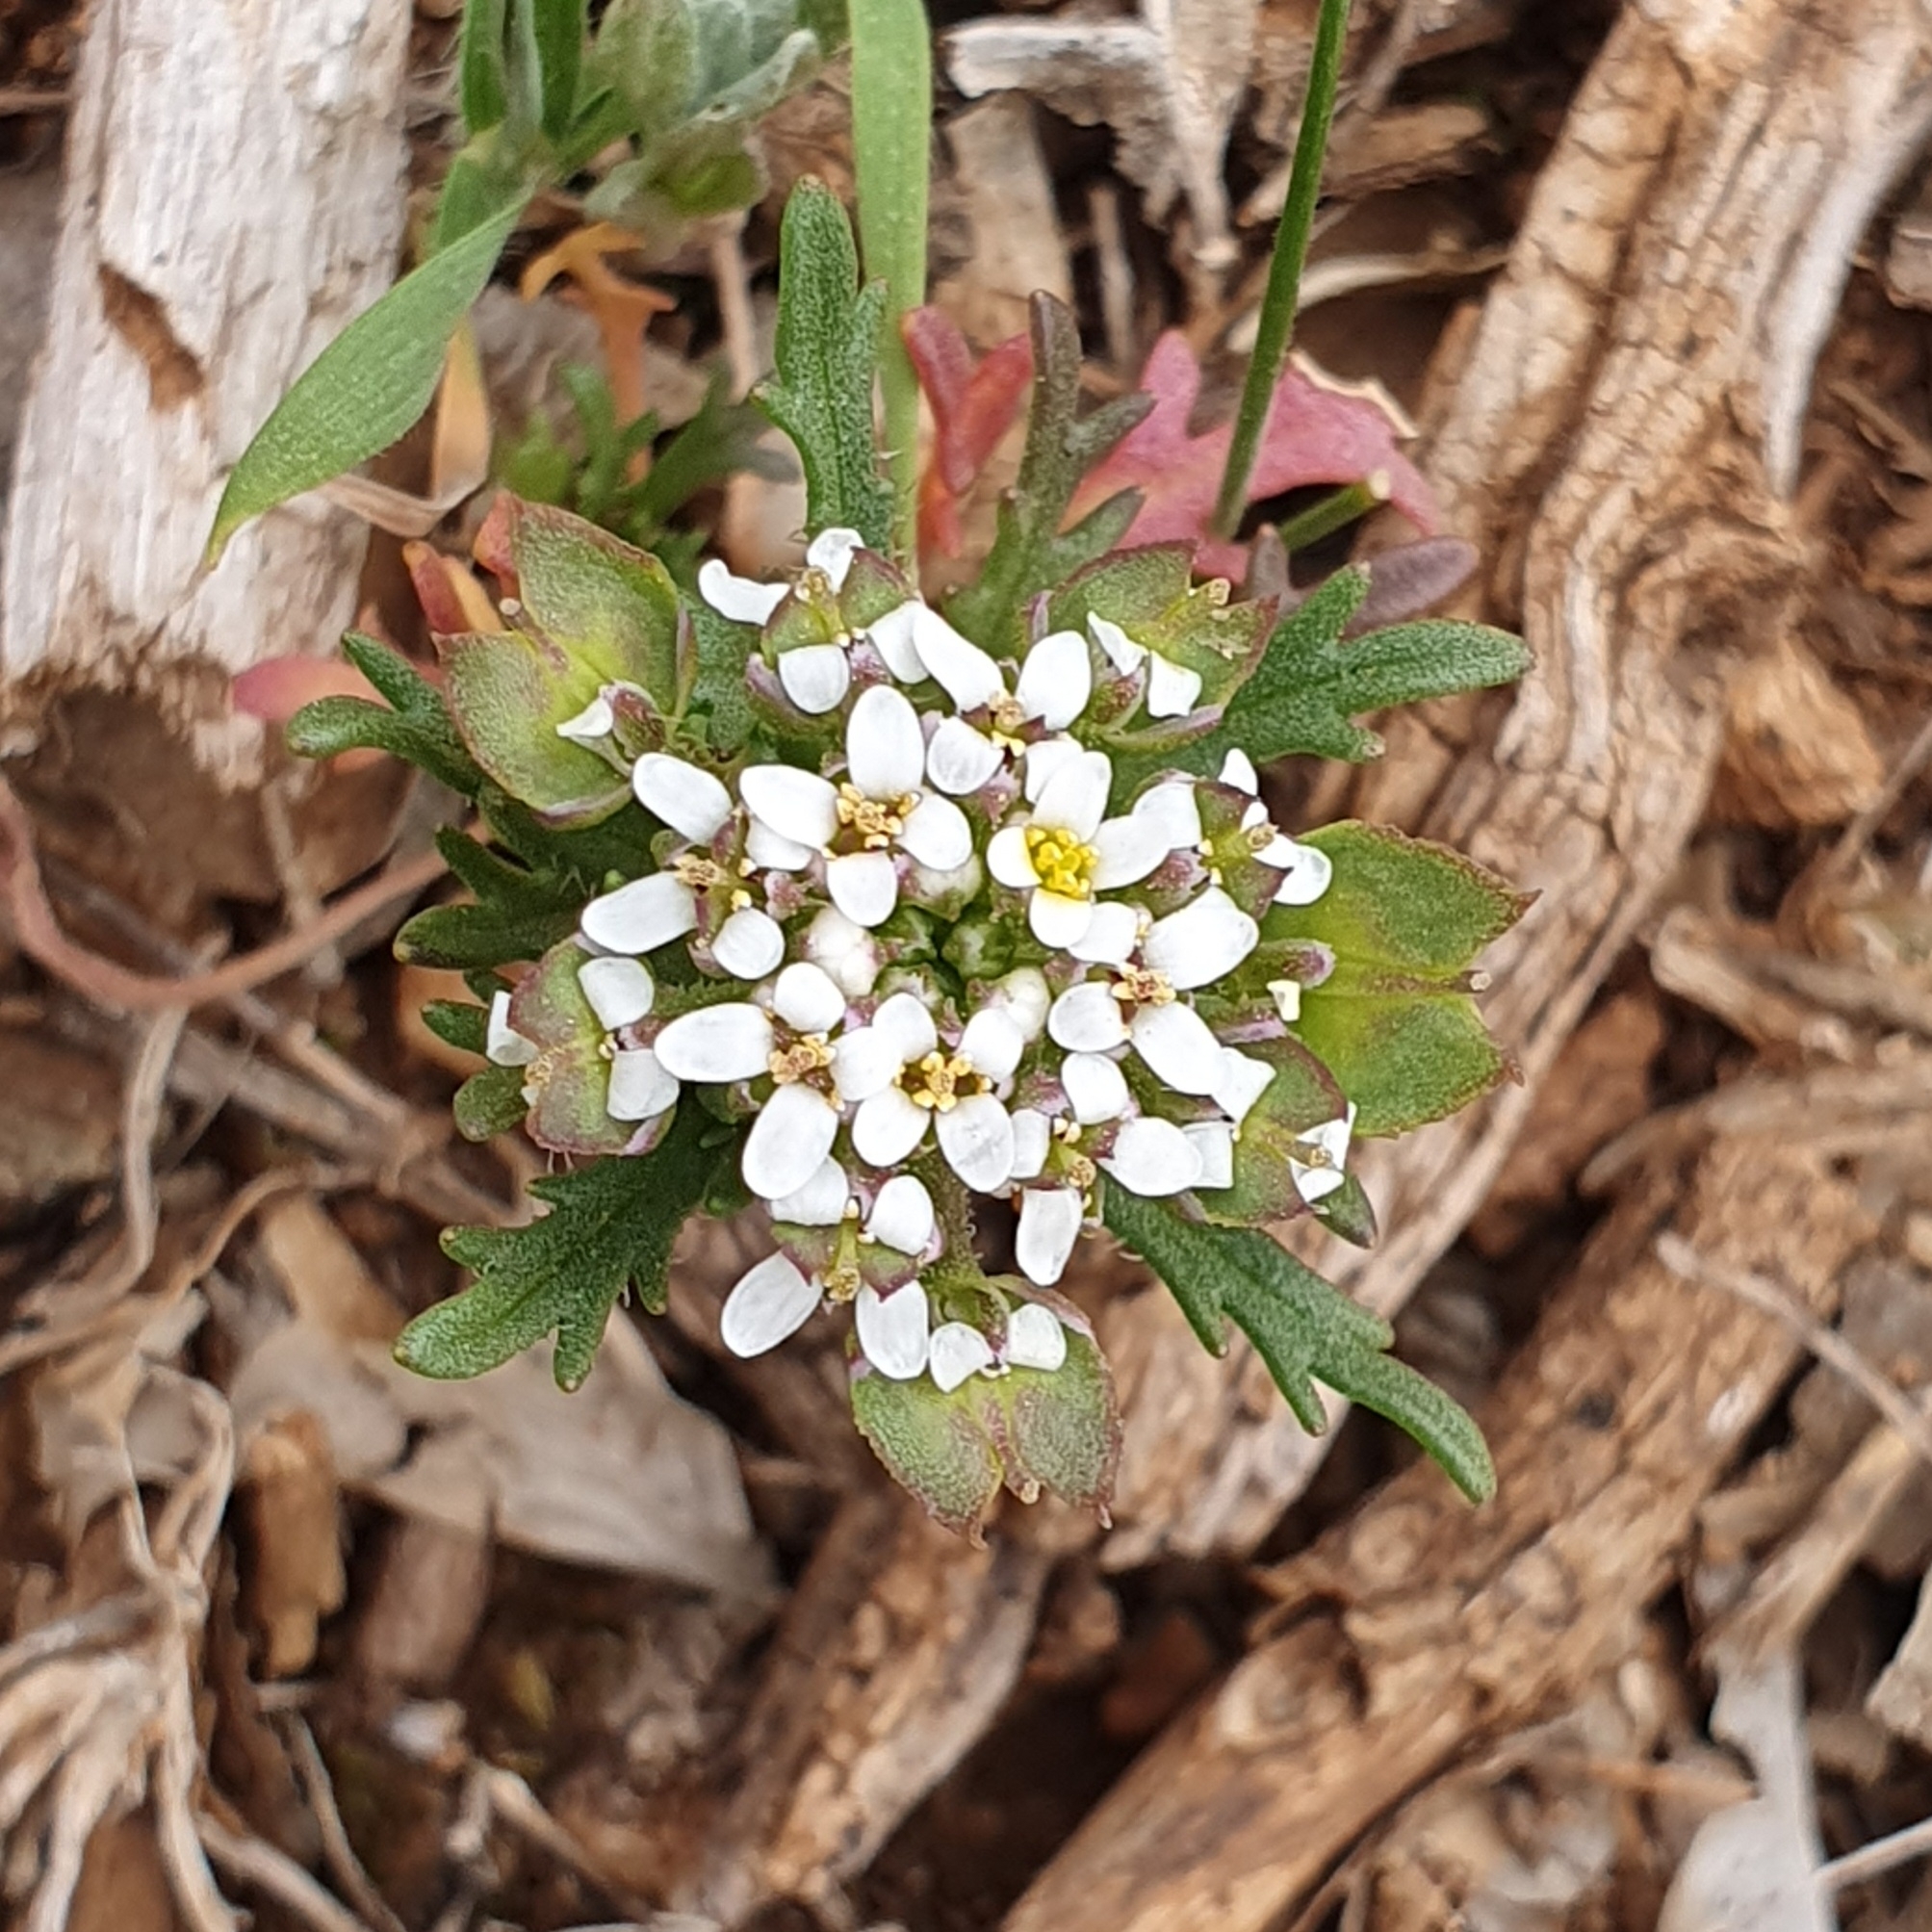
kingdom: Plantae
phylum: Tracheophyta
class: Magnoliopsida
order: Brassicales
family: Brassicaceae
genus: Iberis
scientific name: Iberis odorata
